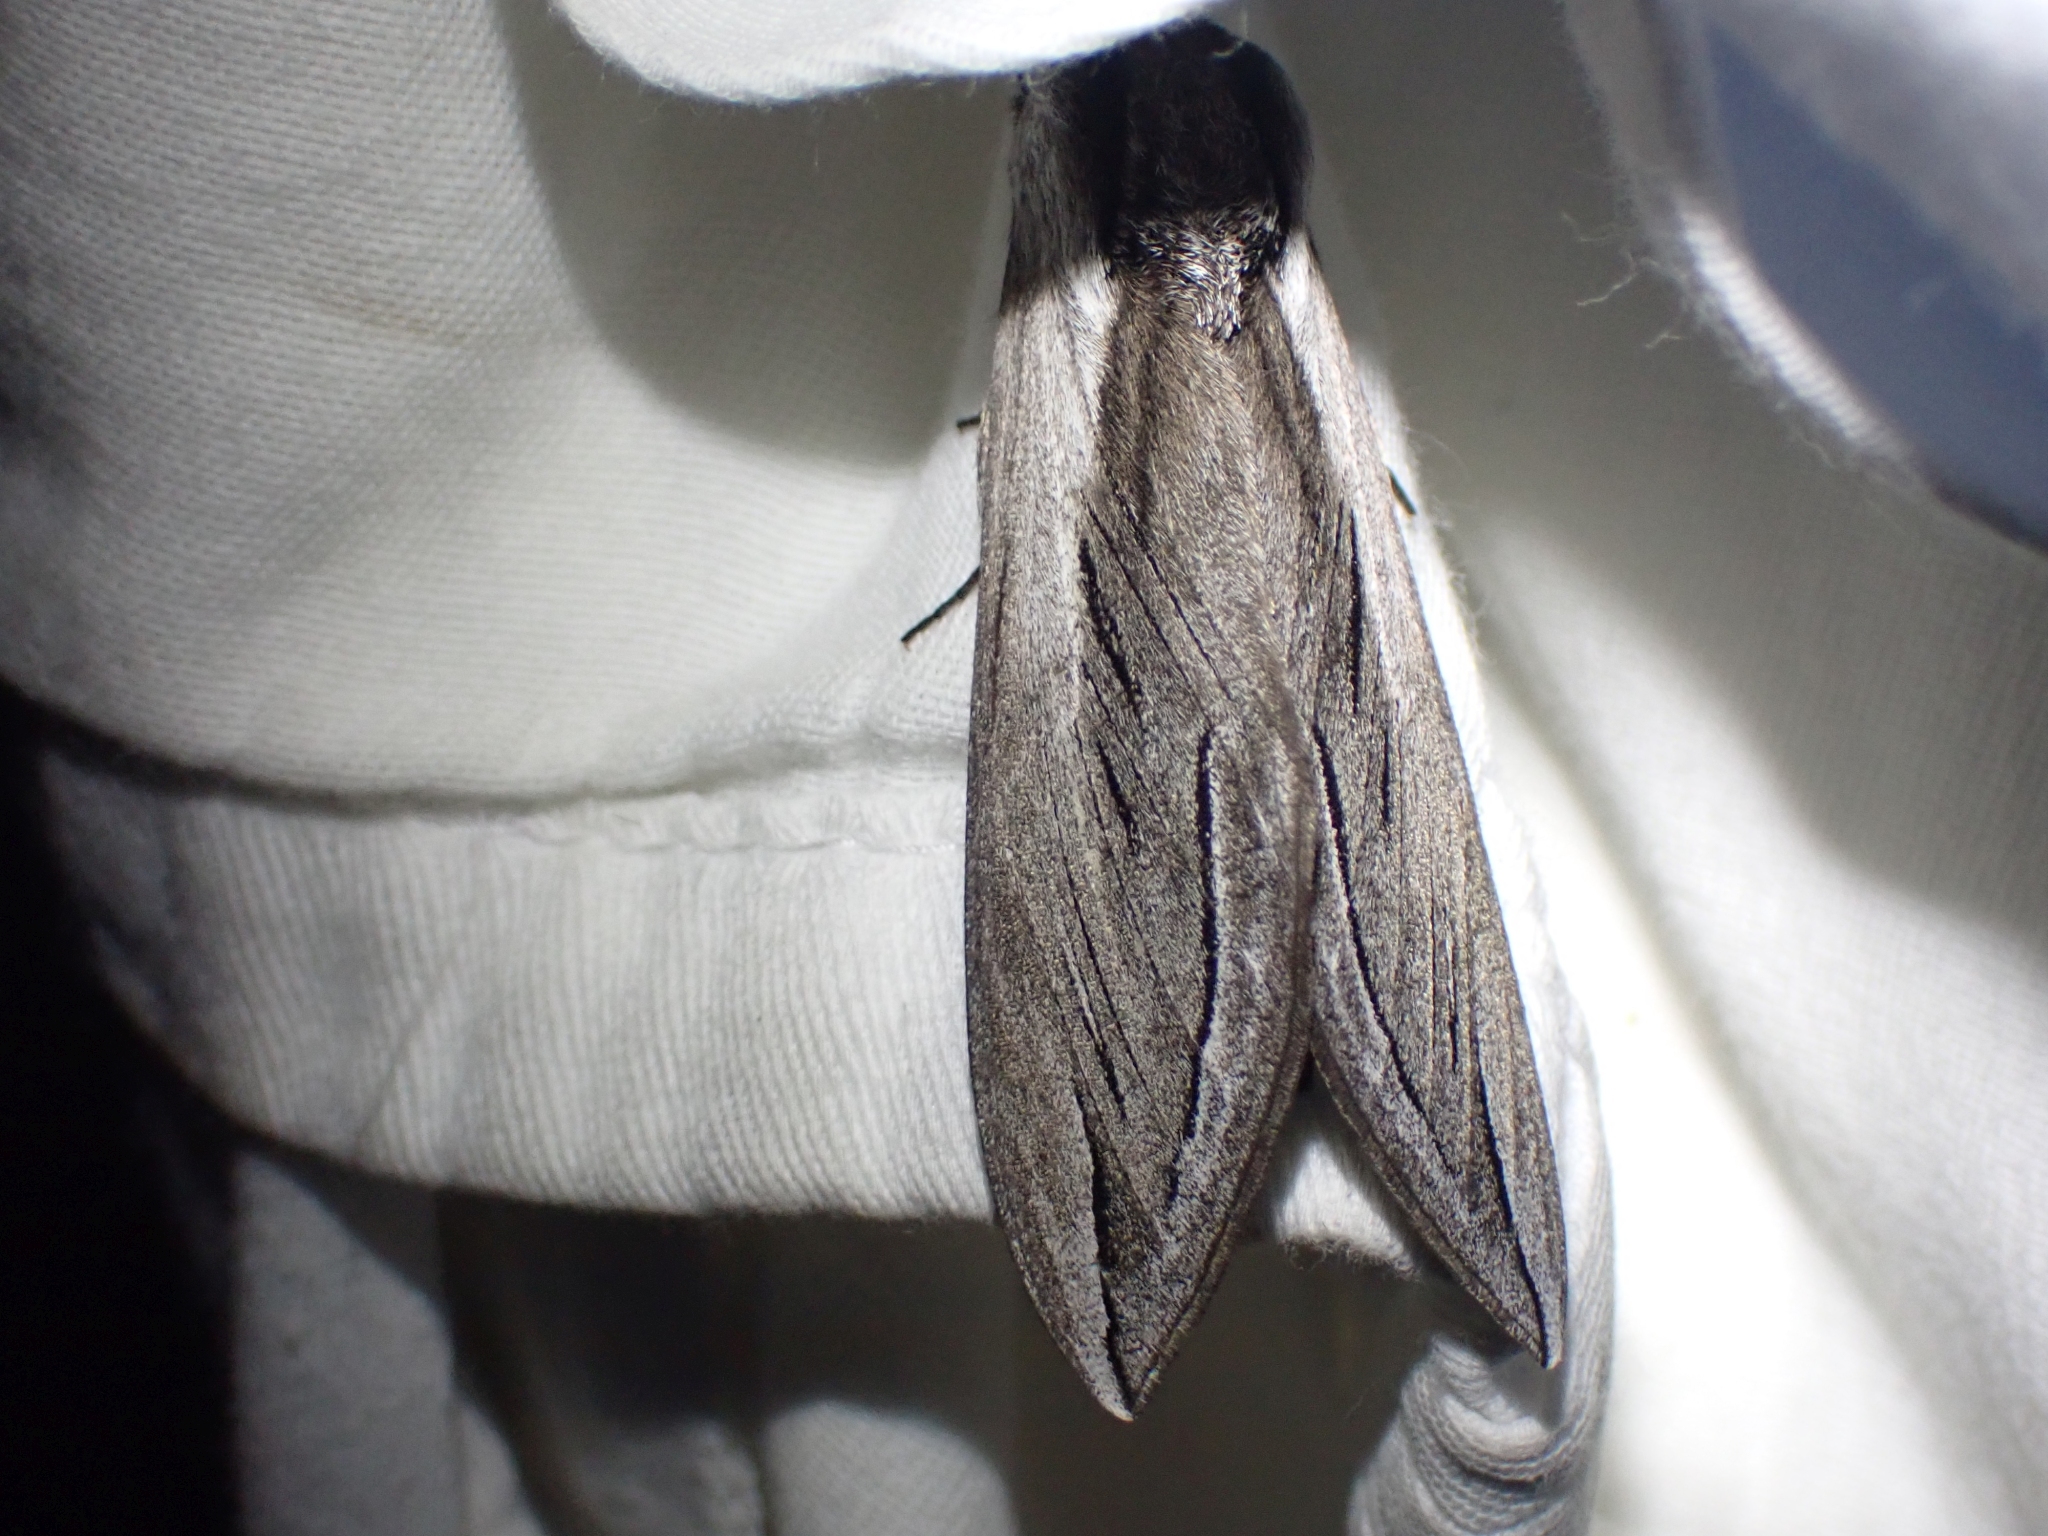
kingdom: Animalia
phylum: Arthropoda
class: Insecta
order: Lepidoptera
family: Sphingidae
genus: Sphinx
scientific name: Sphinx vashti
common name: Snowberry sphinx
